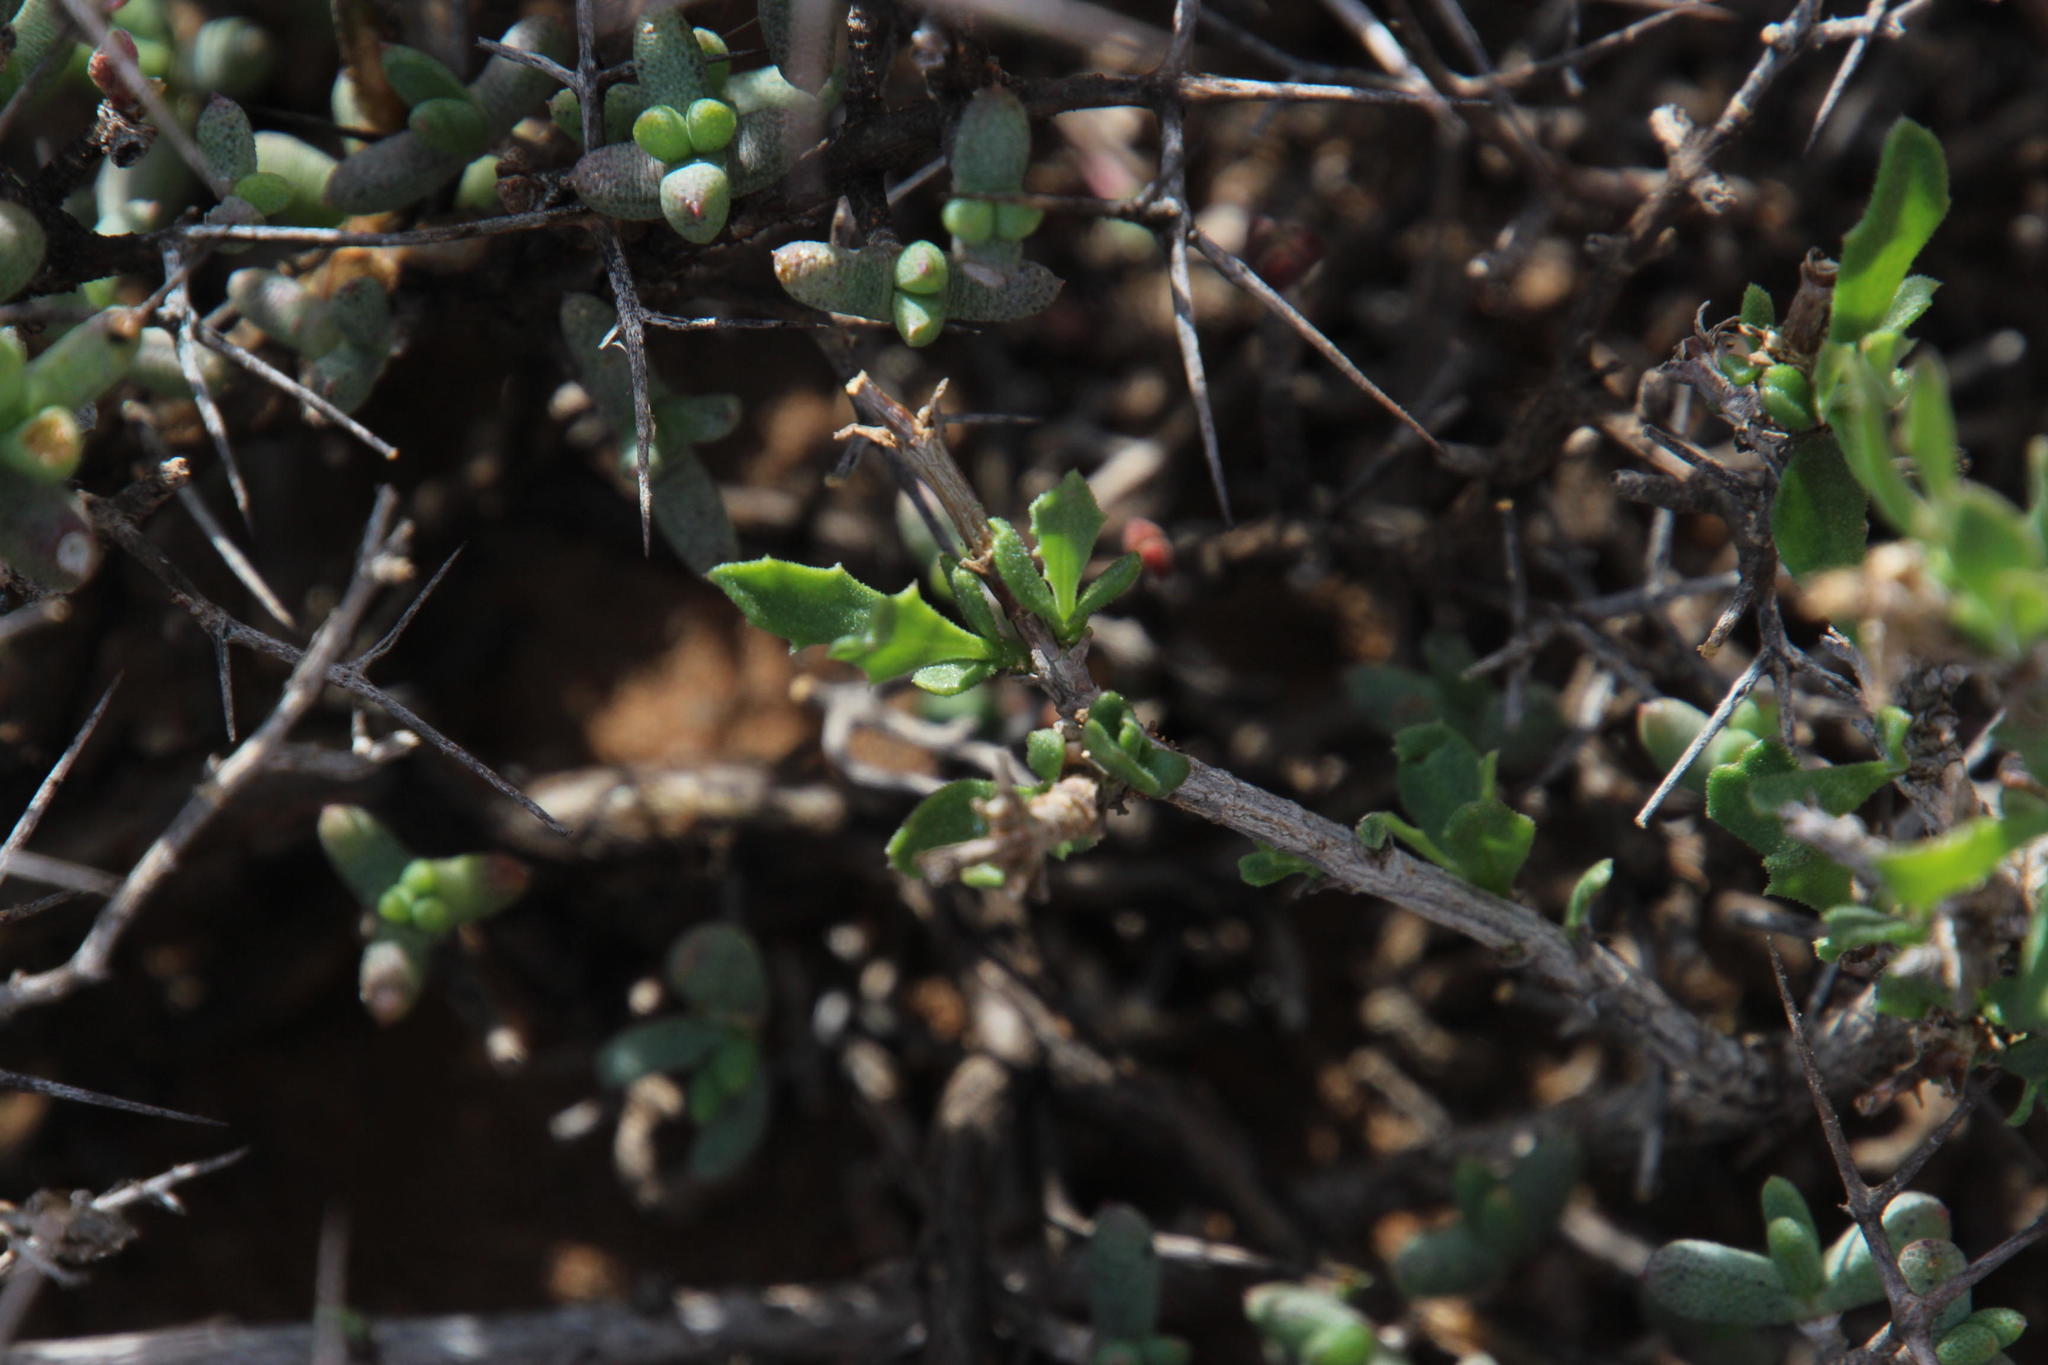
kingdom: Plantae
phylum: Tracheophyta
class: Magnoliopsida
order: Asterales
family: Asteraceae
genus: Osteospermum
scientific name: Osteospermum sinuatum
